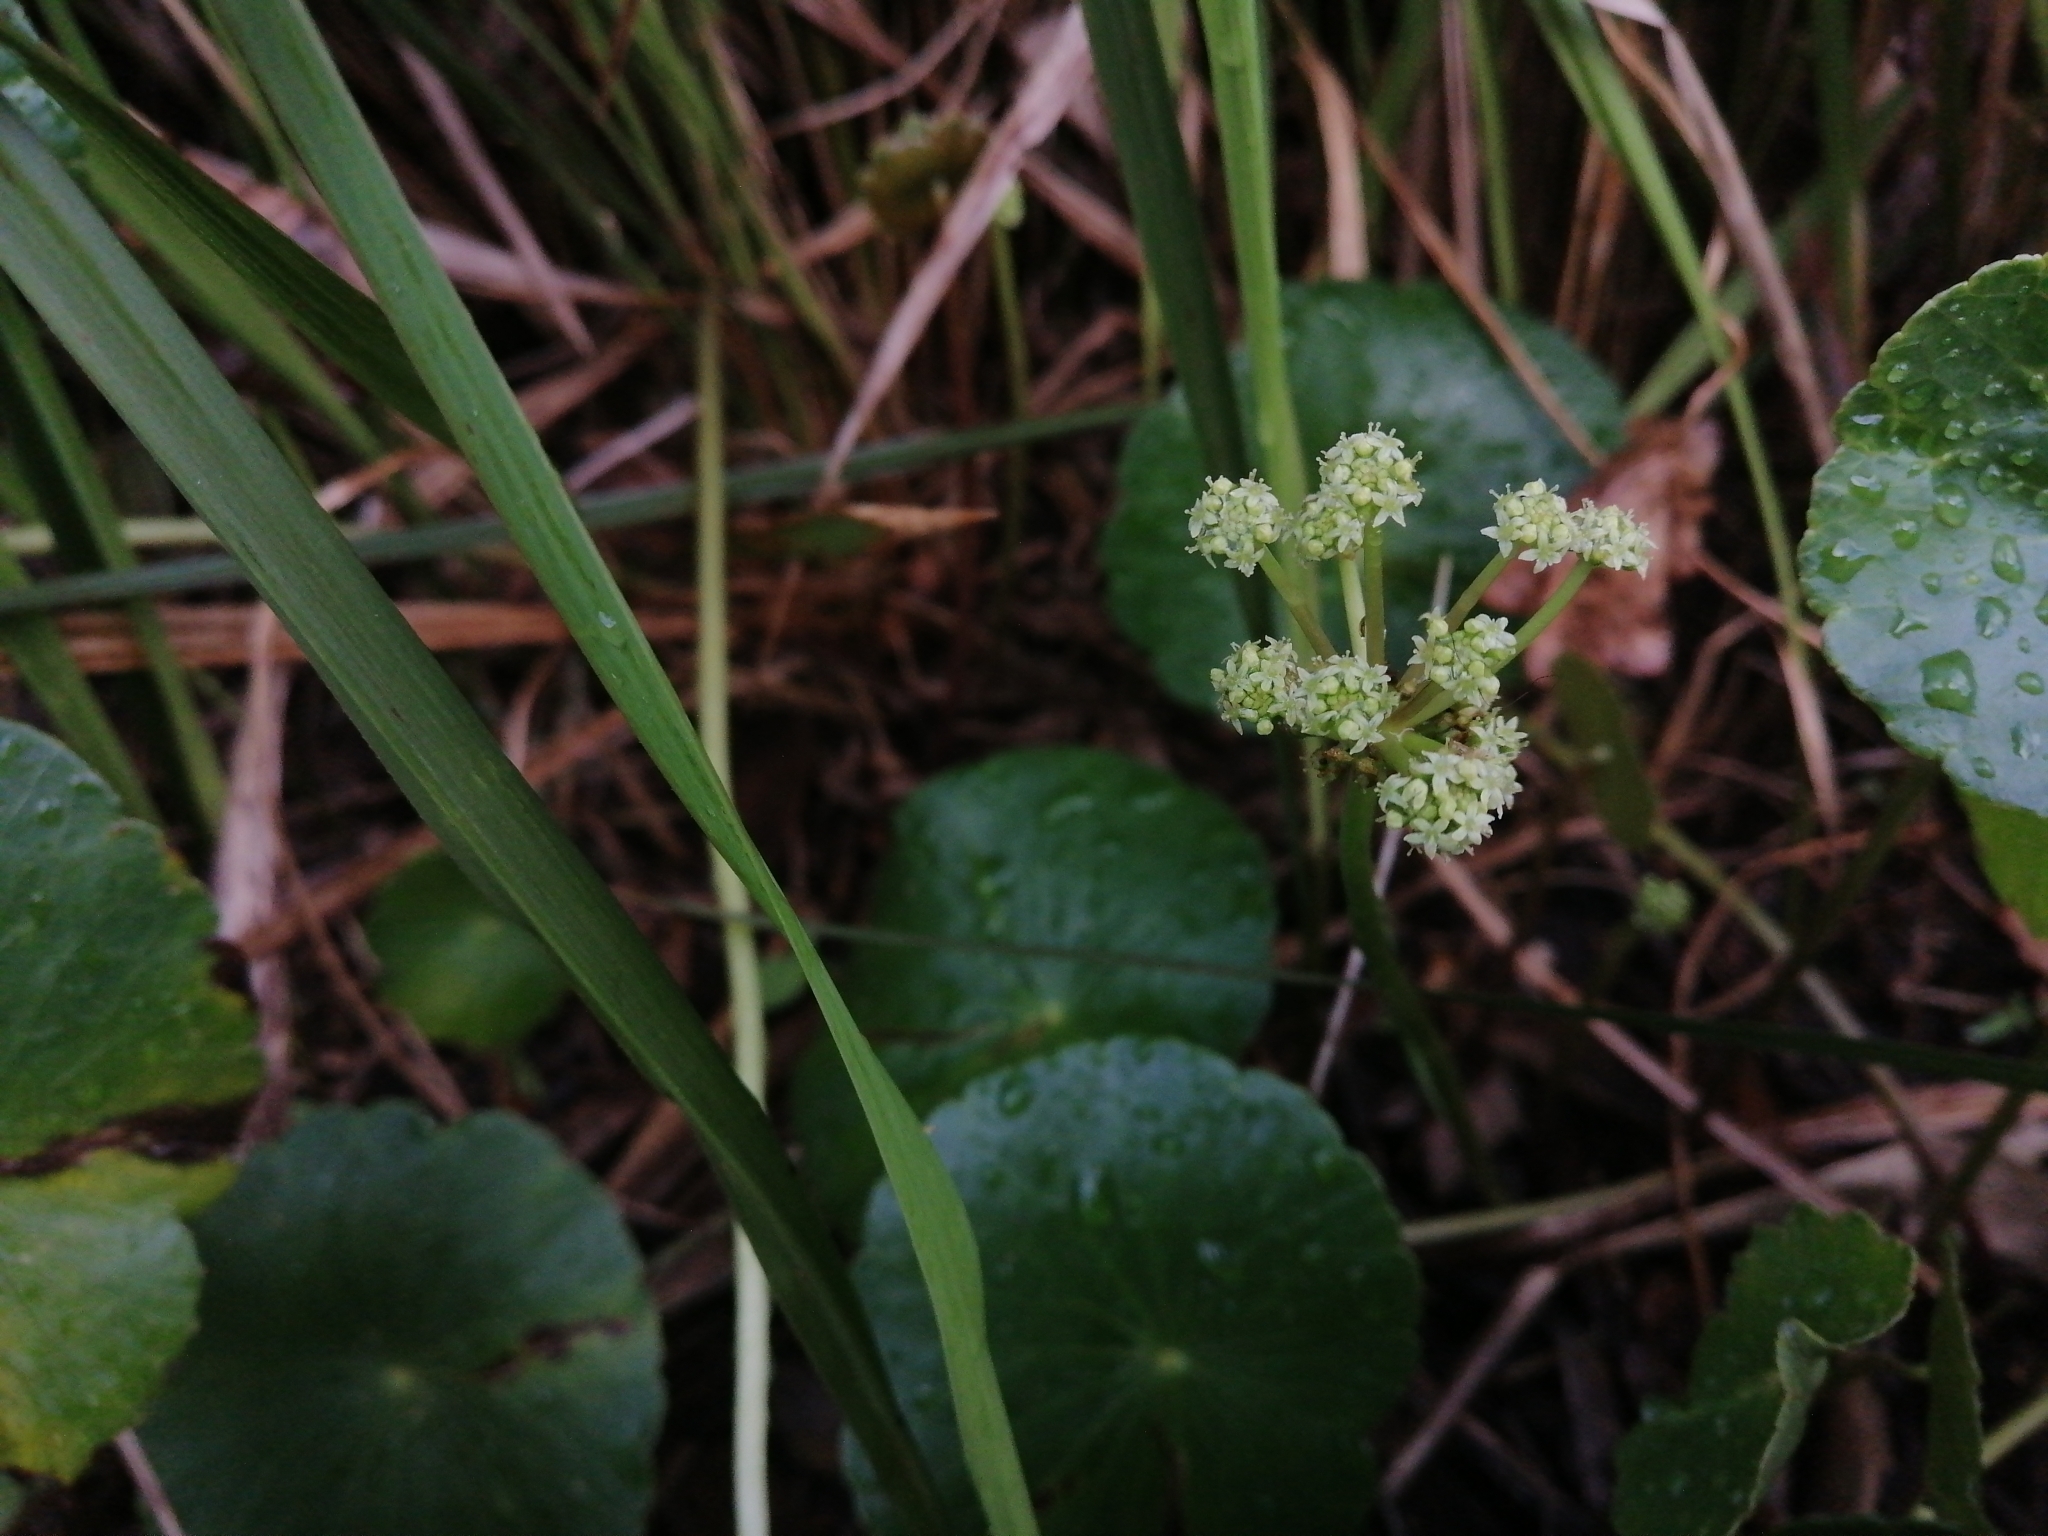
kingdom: Plantae
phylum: Tracheophyta
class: Magnoliopsida
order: Apiales
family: Araliaceae
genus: Hydrocotyle
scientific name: Hydrocotyle bonariensis
